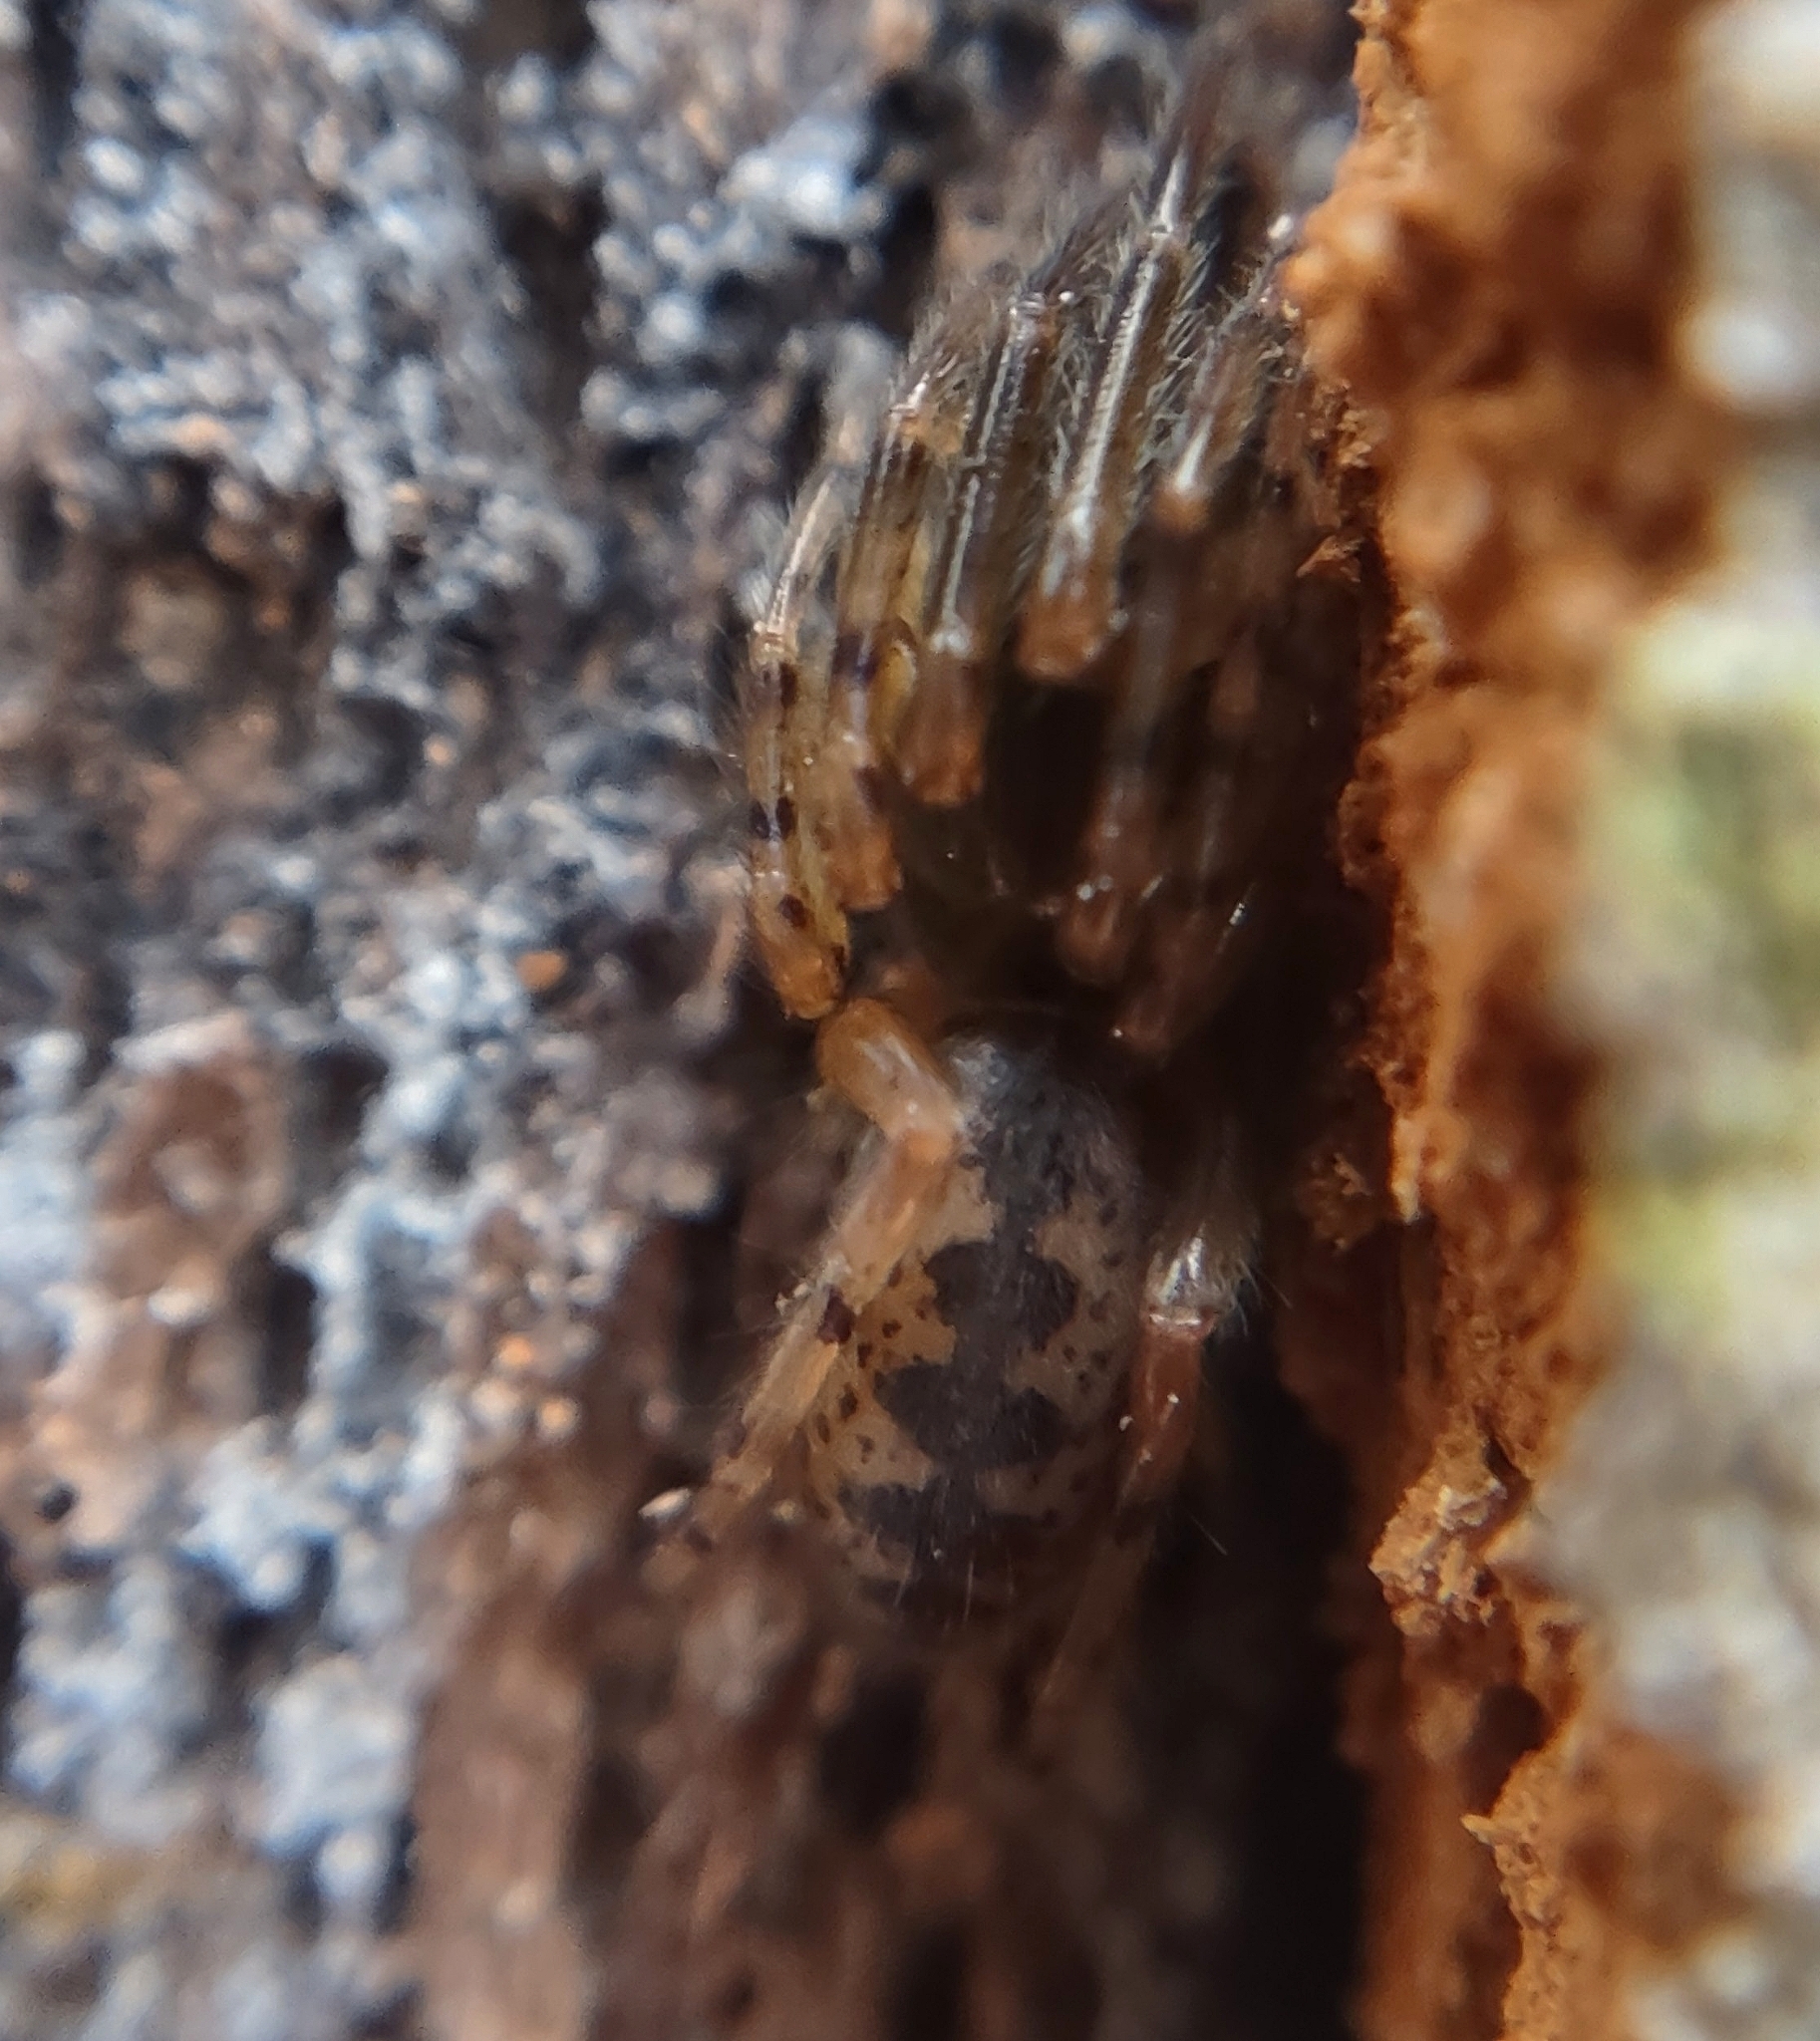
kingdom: Animalia
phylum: Arthropoda
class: Arachnida
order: Araneae
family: Segestriidae
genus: Segestria
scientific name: Segestria senoculata
